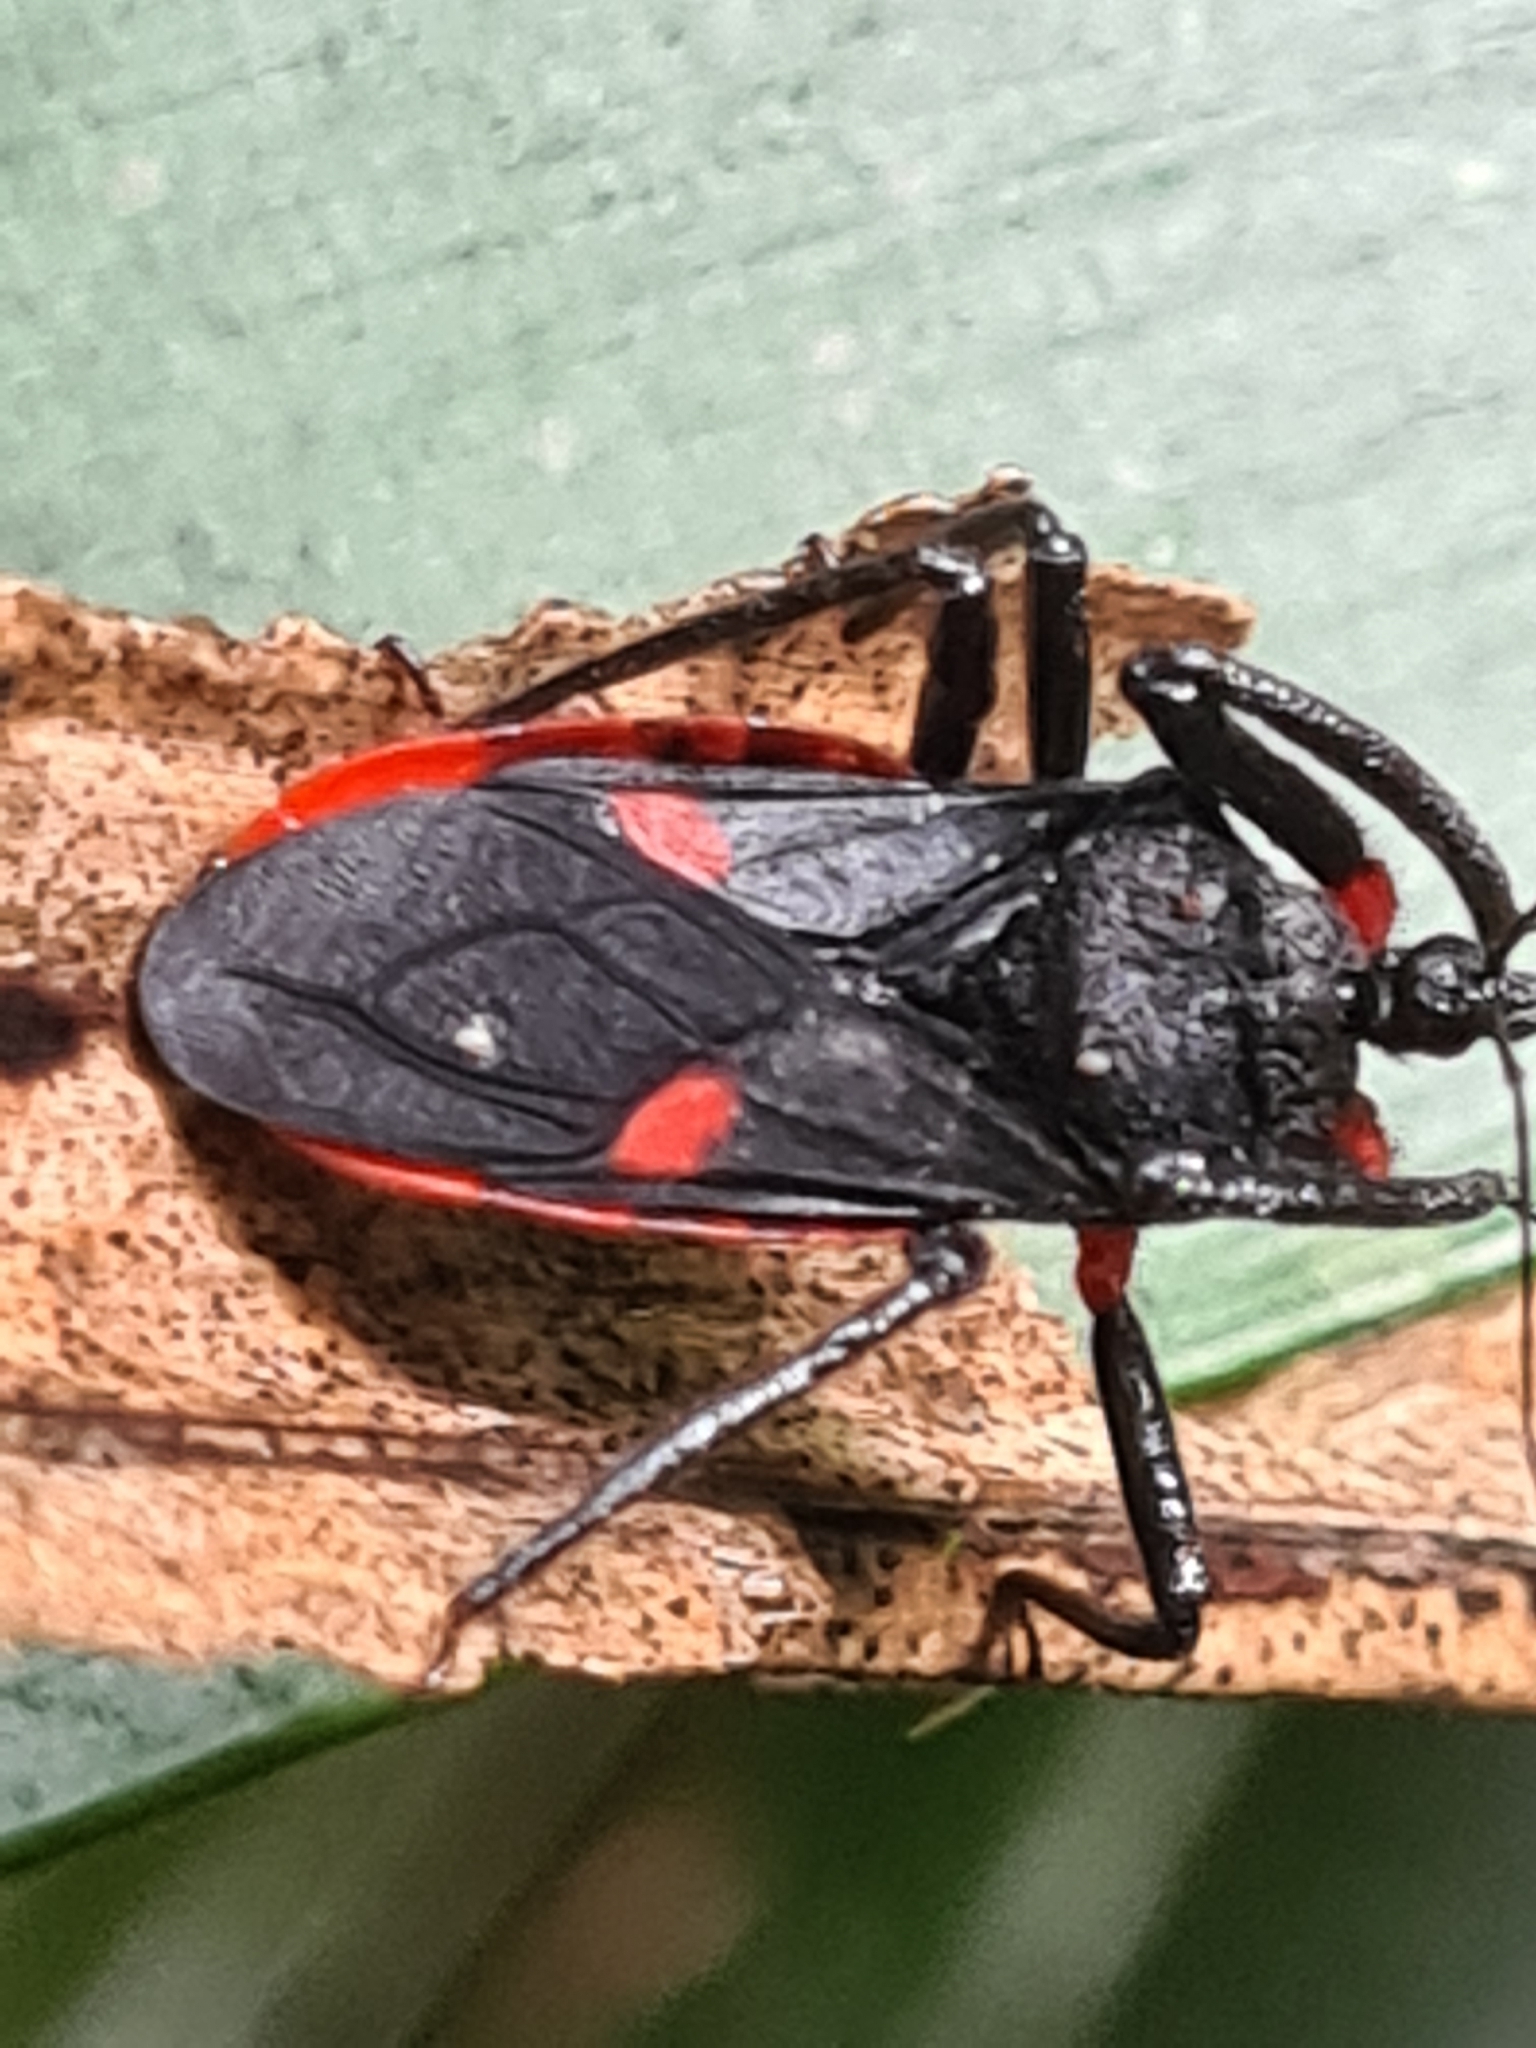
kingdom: Animalia
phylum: Arthropoda
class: Insecta
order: Hemiptera
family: Reduviidae
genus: Micrauchenus
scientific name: Micrauchenus lineola
